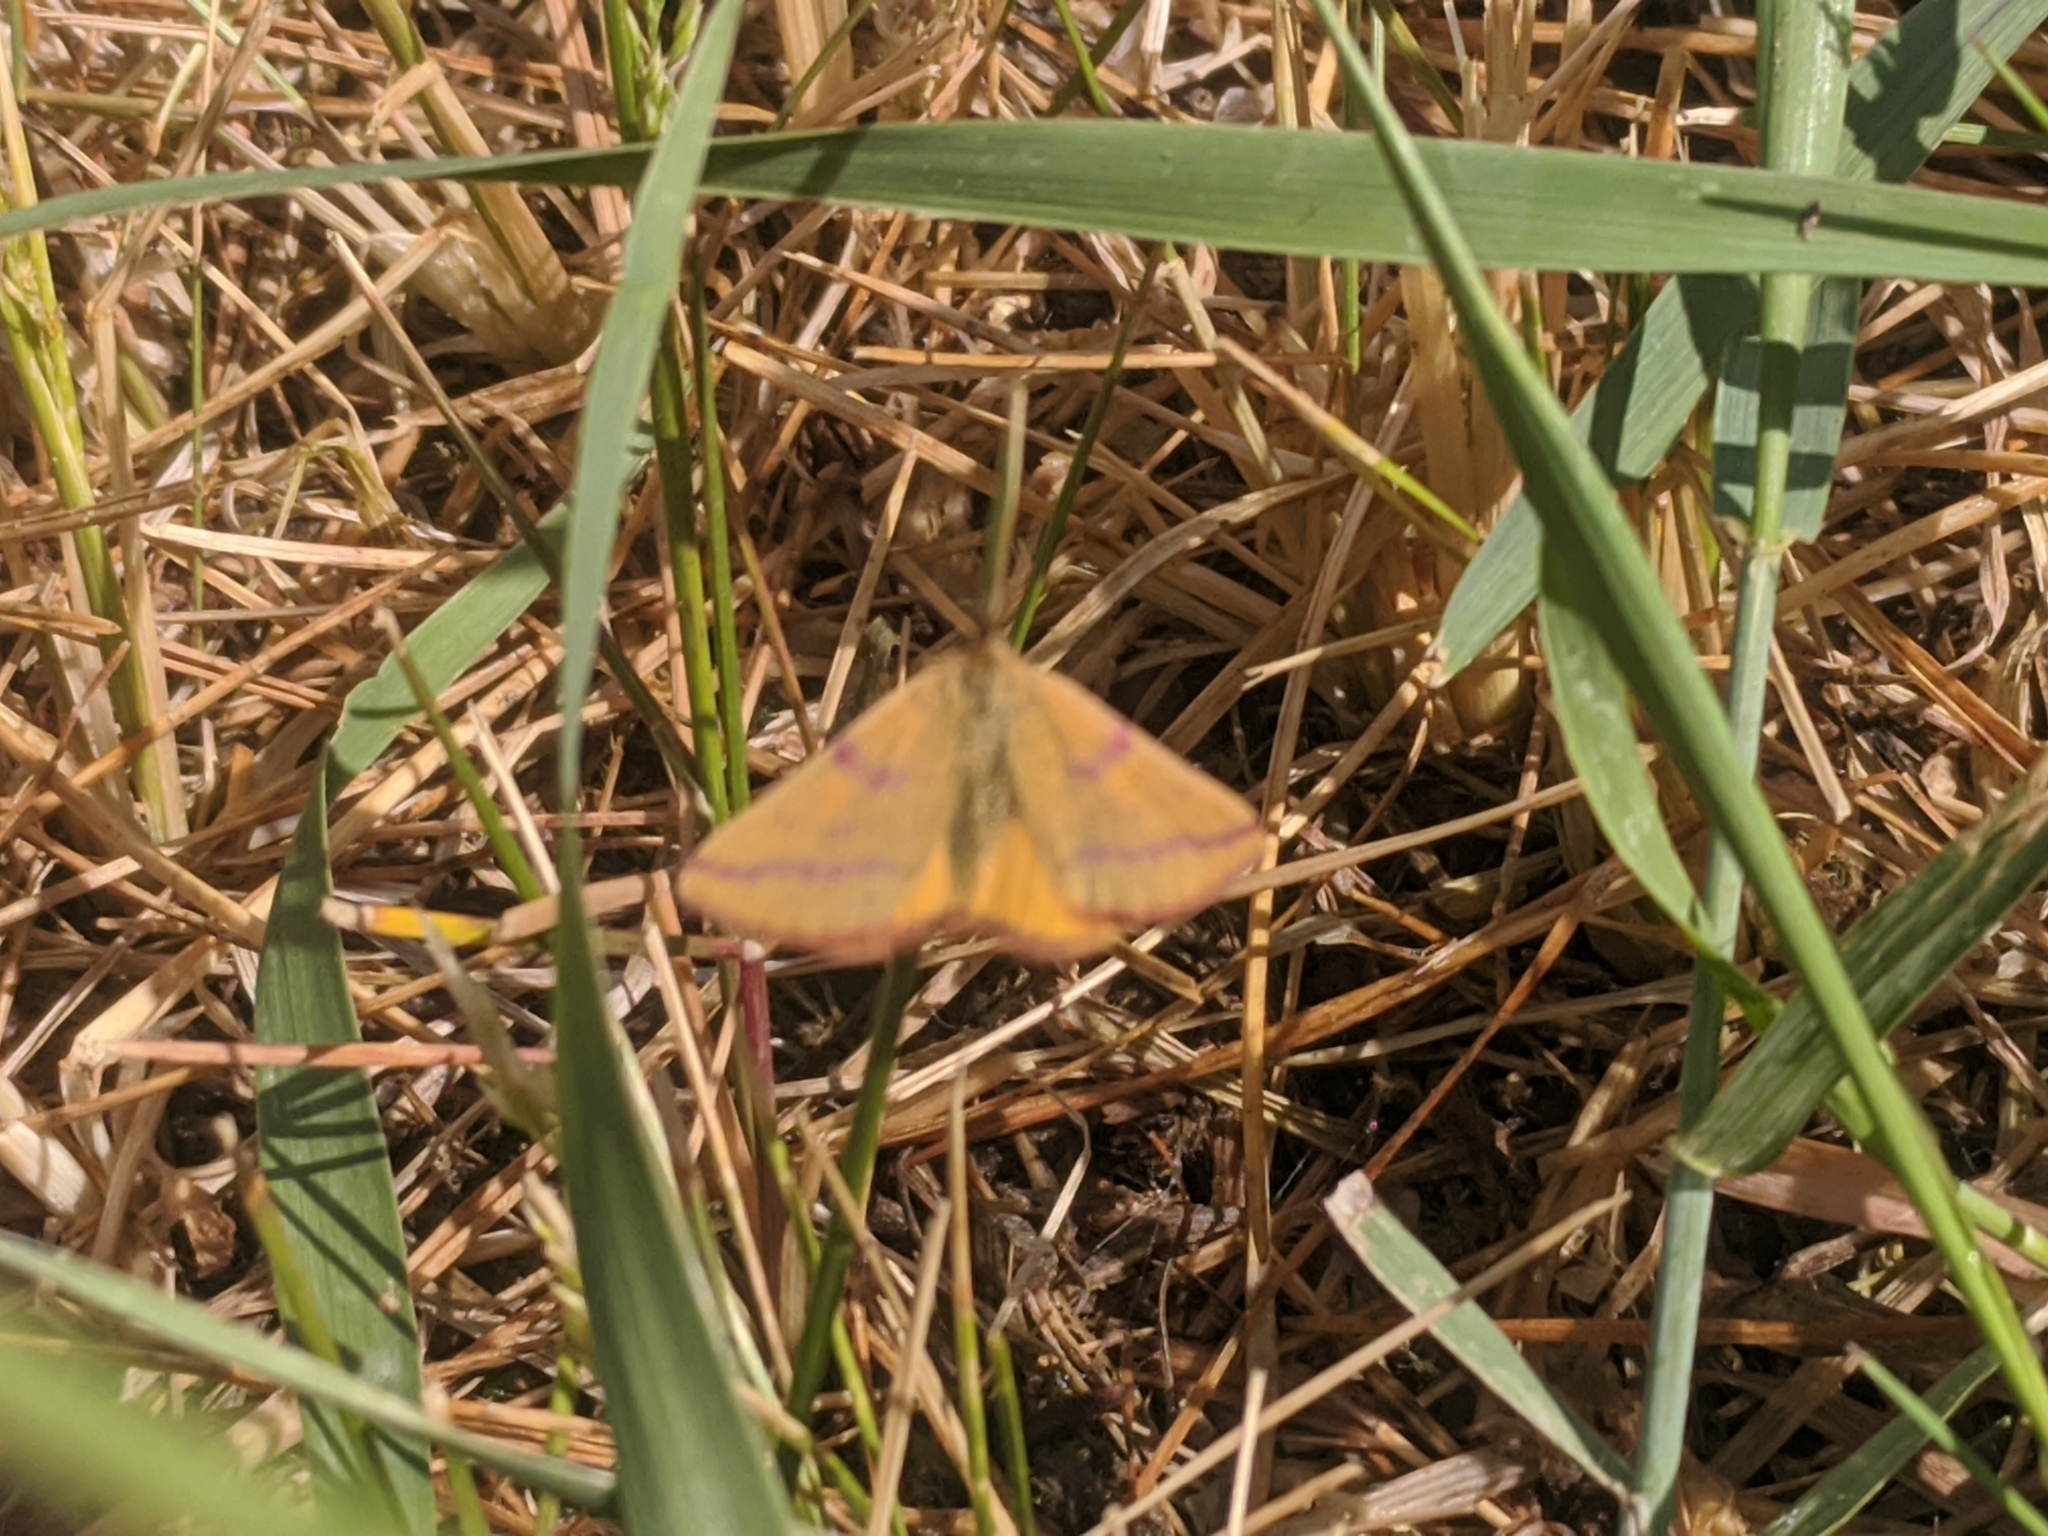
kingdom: Animalia
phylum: Arthropoda
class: Insecta
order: Lepidoptera
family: Geometridae
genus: Lythria
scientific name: Lythria purpuraria
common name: Purple-barred yellow
